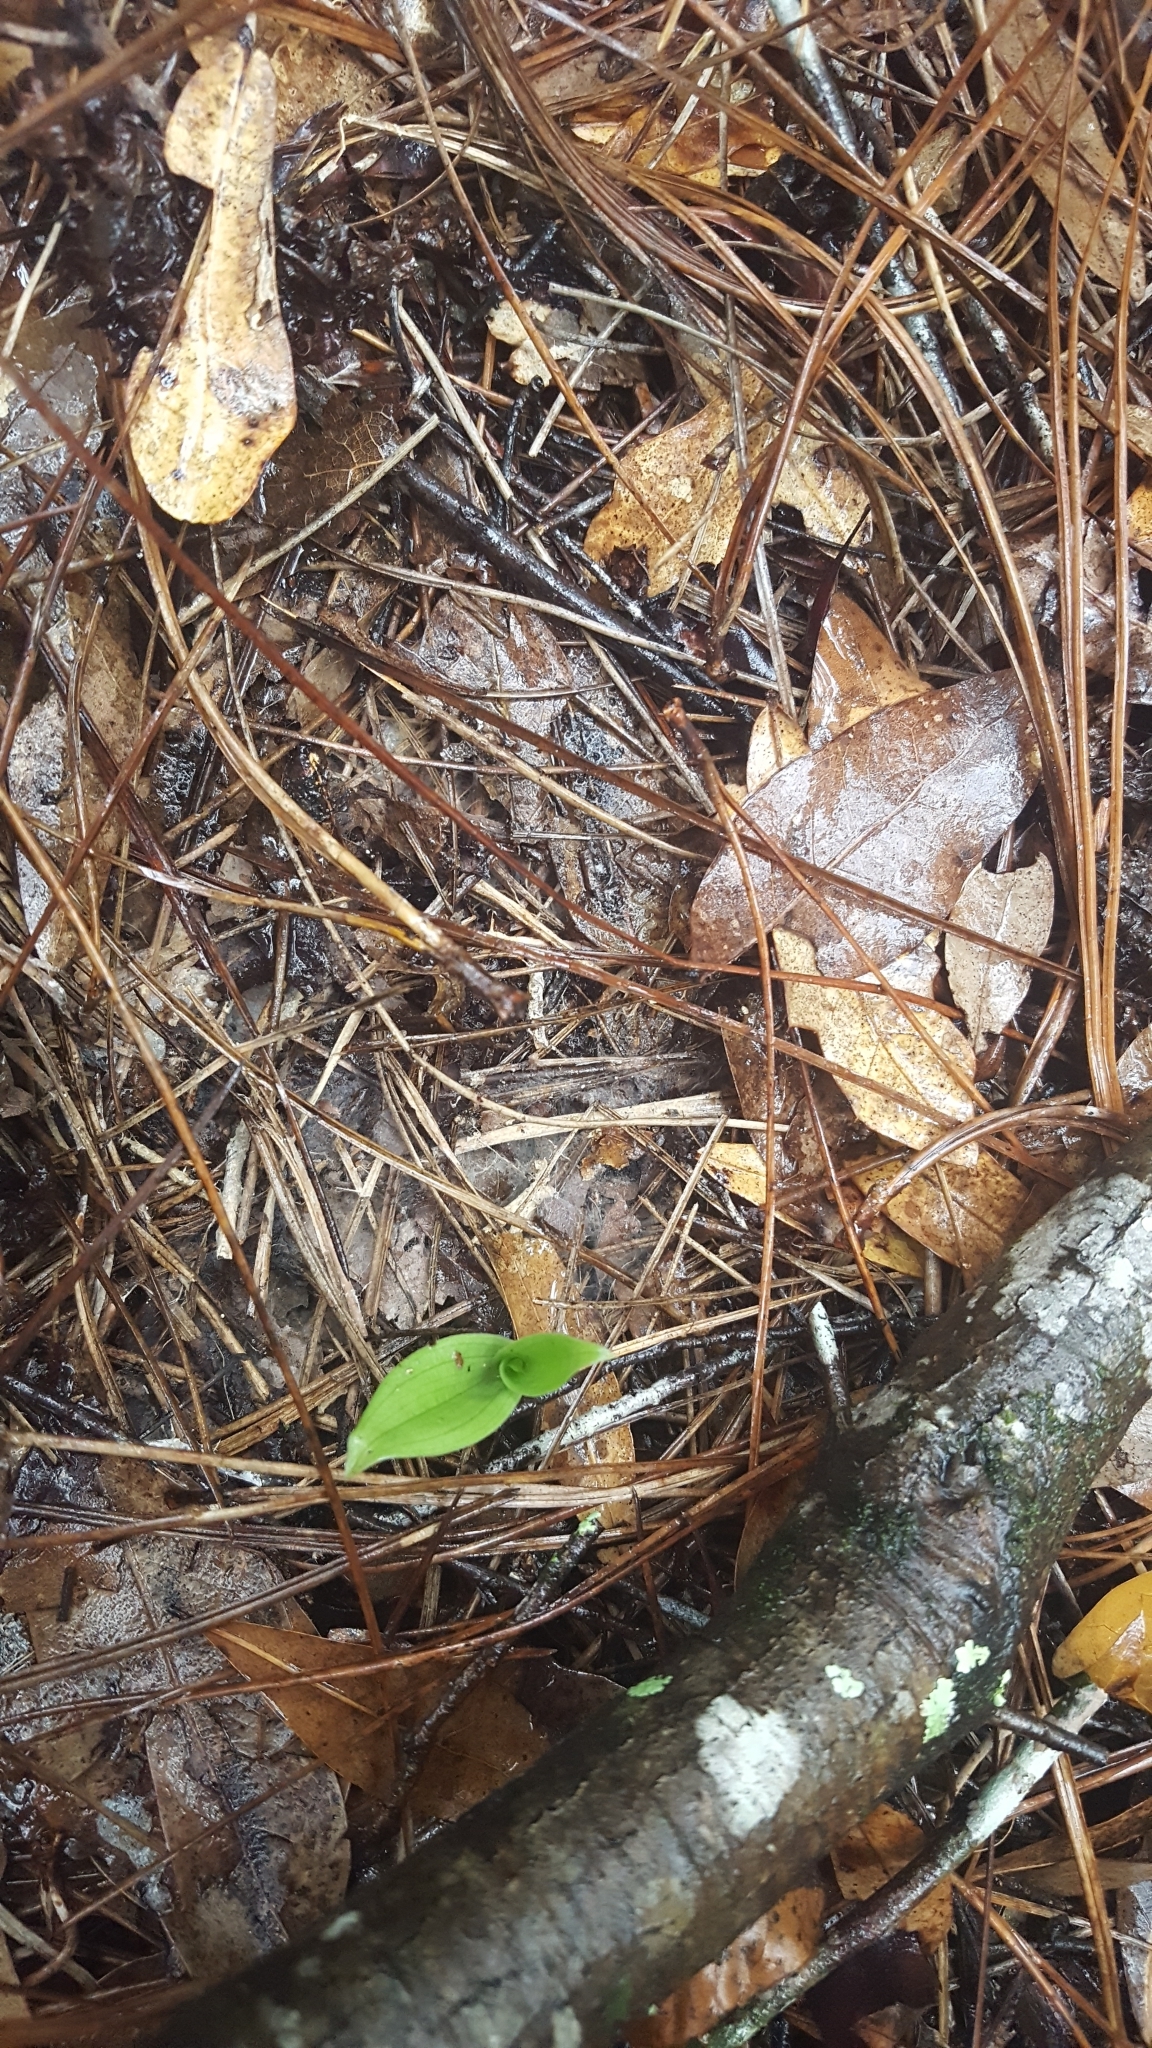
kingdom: Plantae
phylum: Tracheophyta
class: Liliopsida
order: Asparagales
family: Orchidaceae
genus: Habenaria
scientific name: Habenaria floribunda
